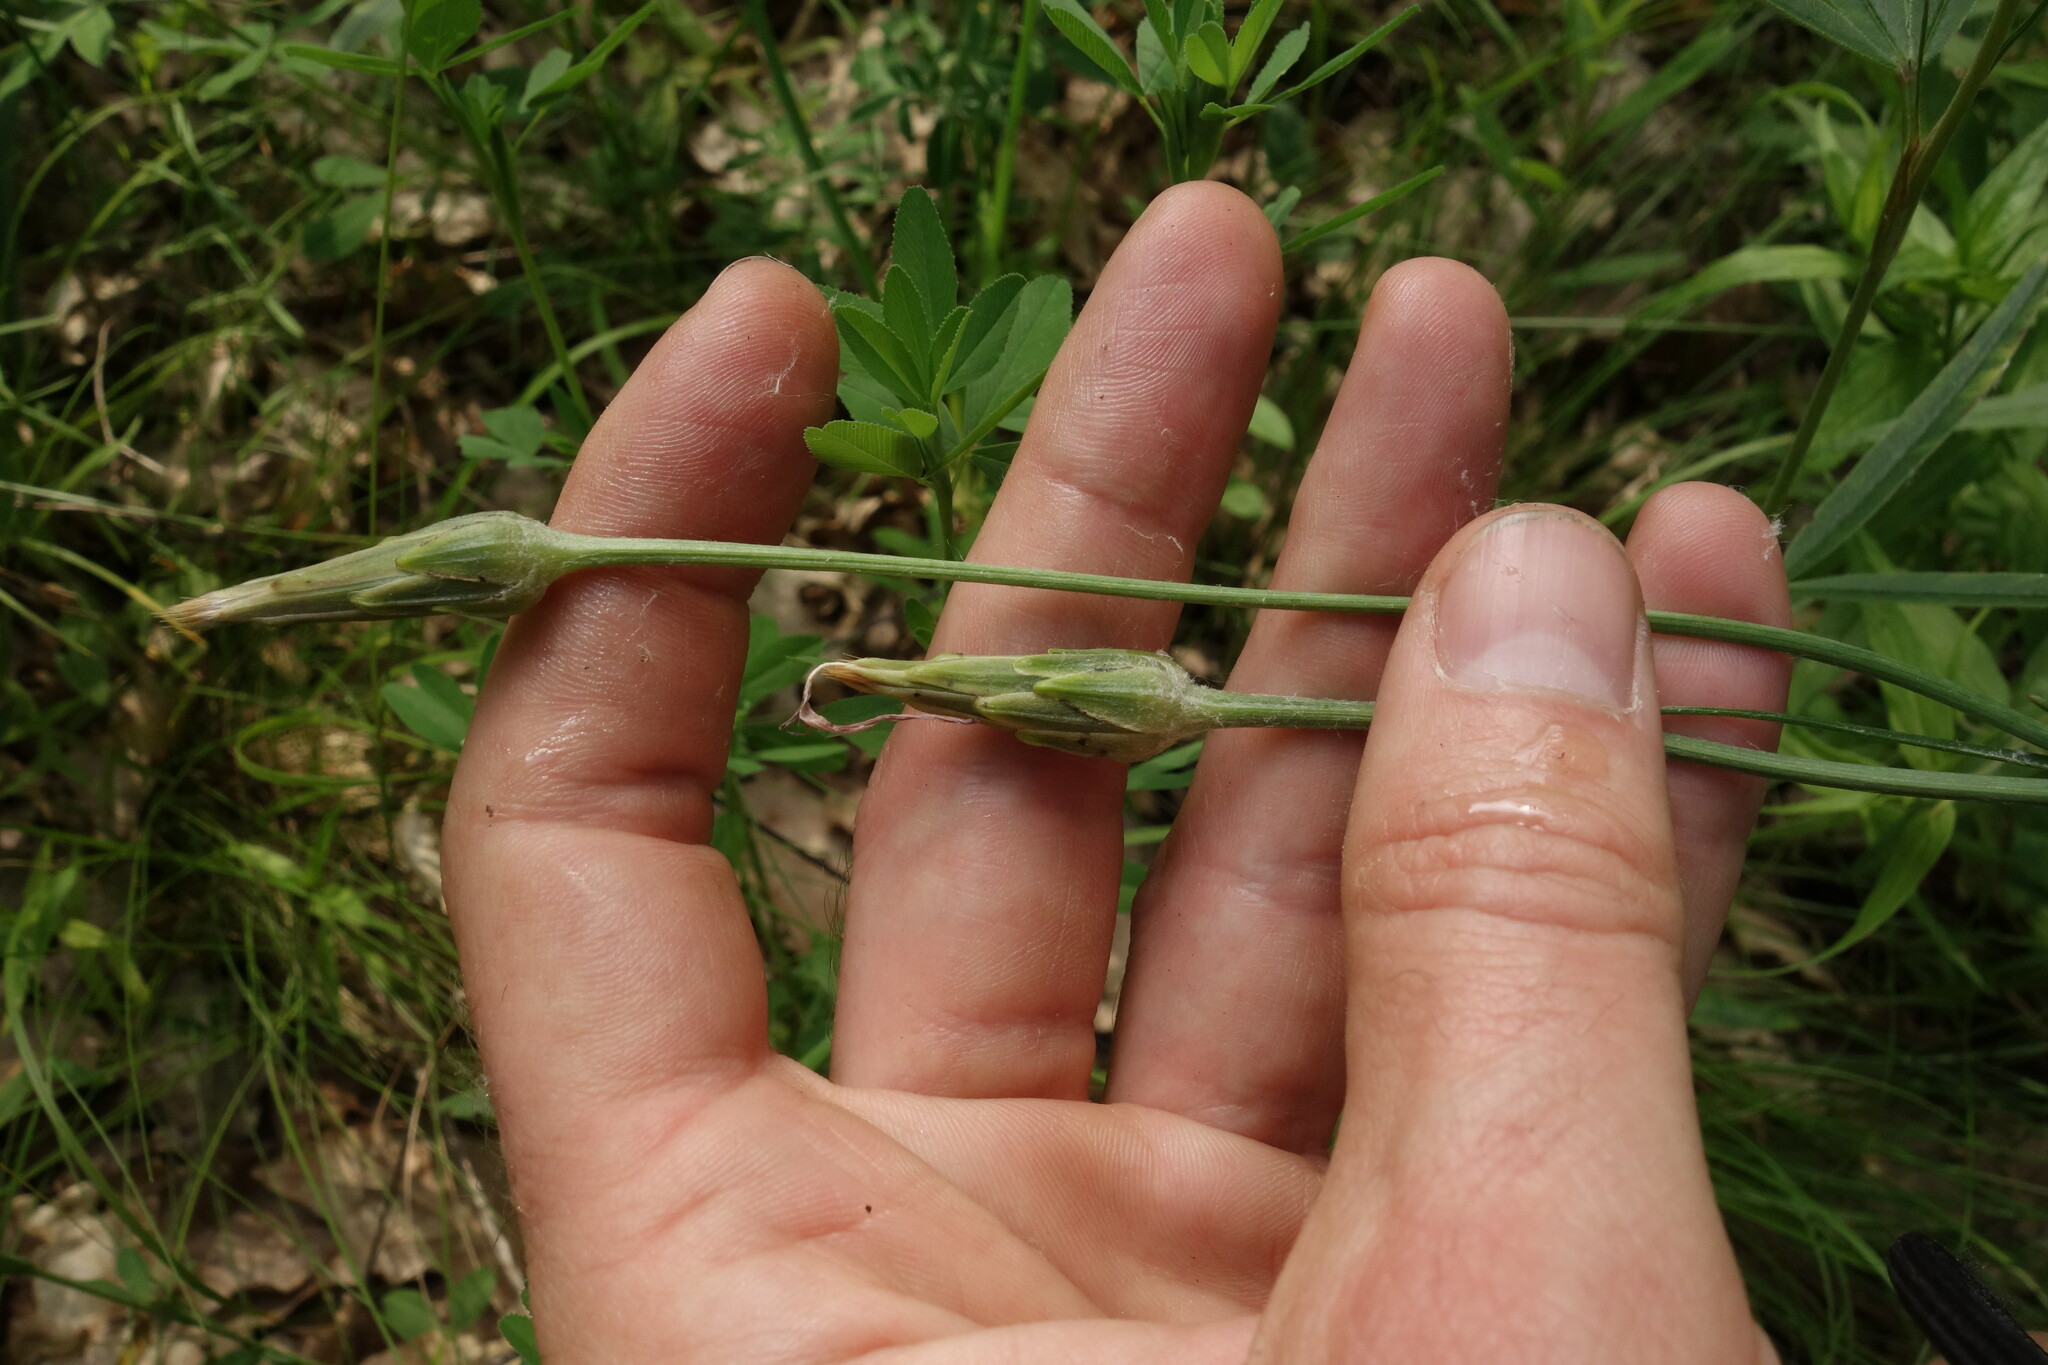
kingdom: Plantae
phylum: Tracheophyta
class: Magnoliopsida
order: Asterales
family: Asteraceae
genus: Scorzonera
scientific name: Scorzonera purpurea
